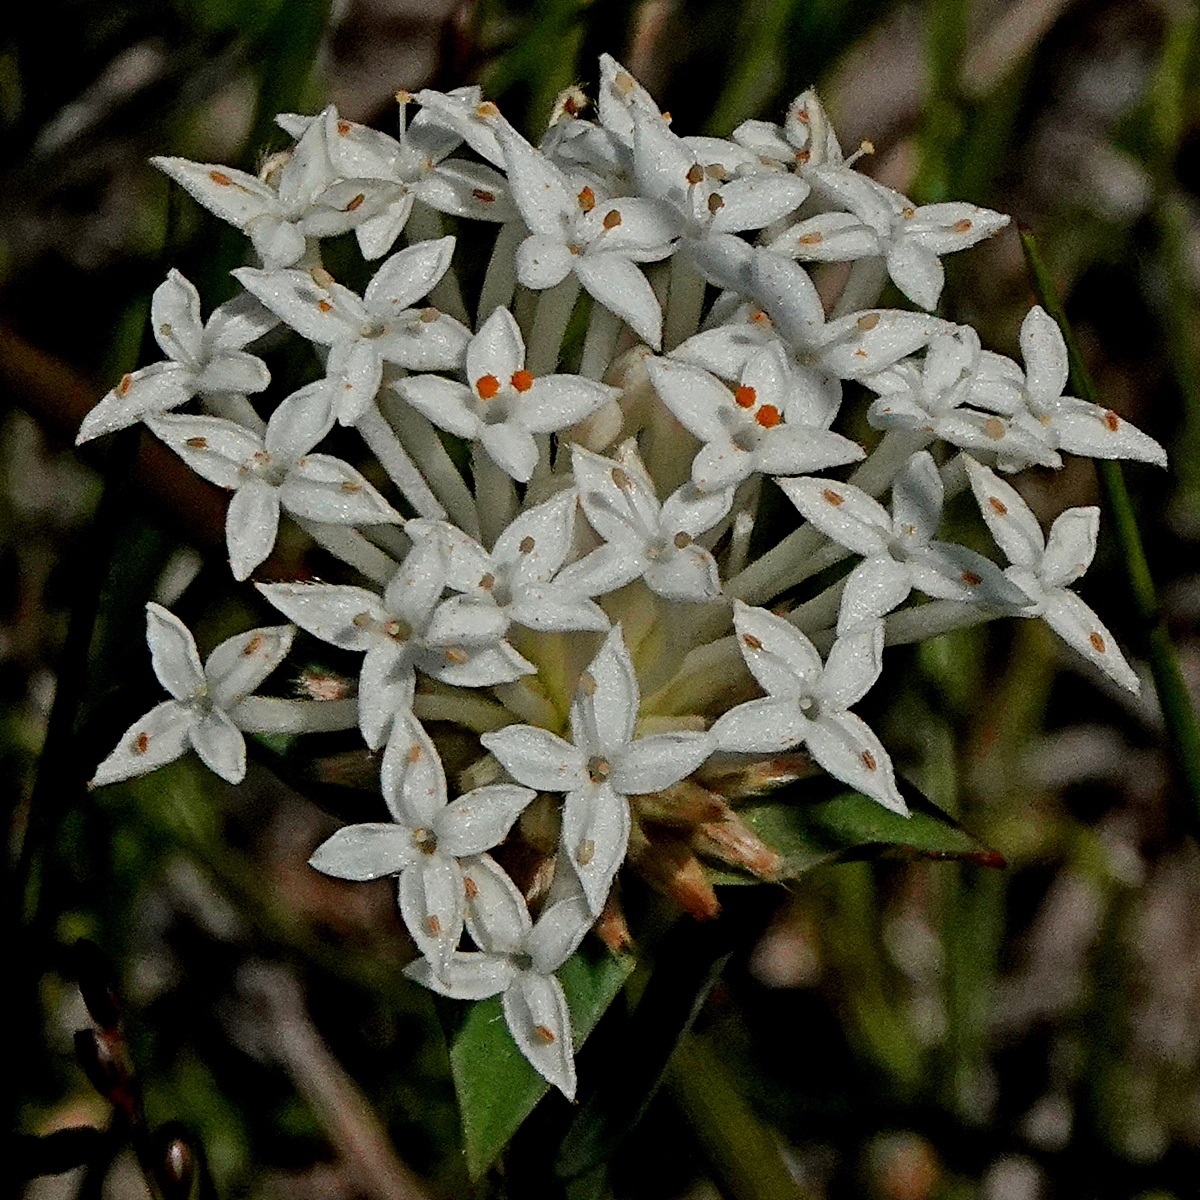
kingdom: Plantae
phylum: Tracheophyta
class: Magnoliopsida
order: Malvales
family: Thymelaeaceae
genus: Pimelea
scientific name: Pimelea linifolia
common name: Queen-of-the-bush
